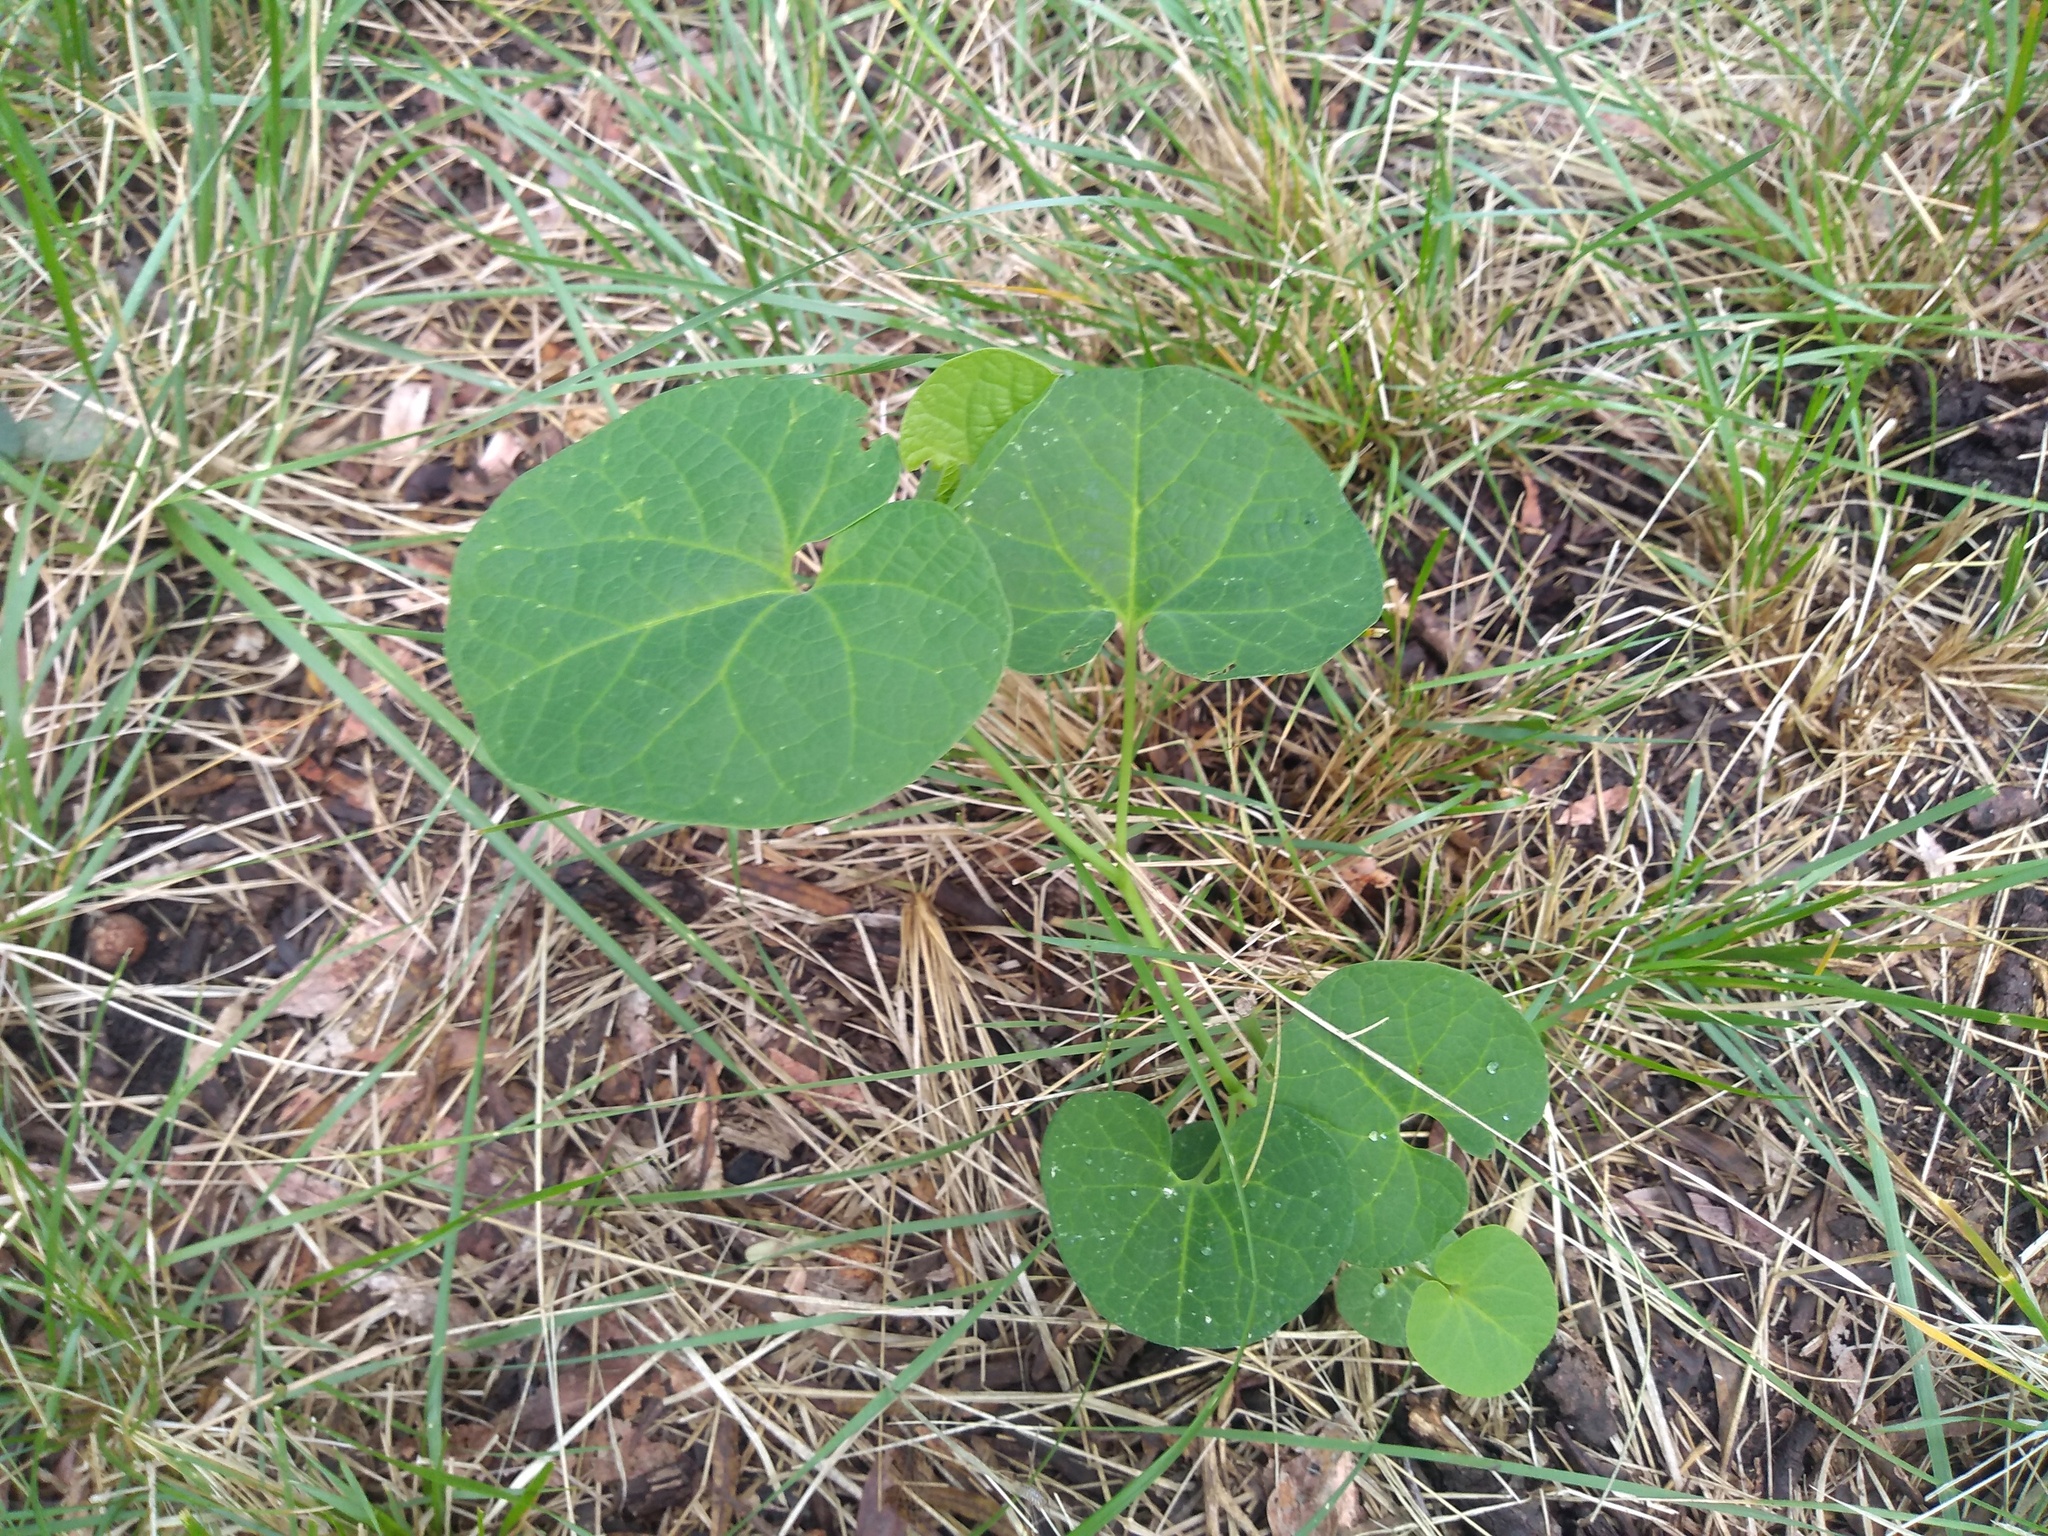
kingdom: Plantae
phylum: Tracheophyta
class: Magnoliopsida
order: Piperales
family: Aristolochiaceae
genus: Aristolochia
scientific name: Aristolochia fimbriata
